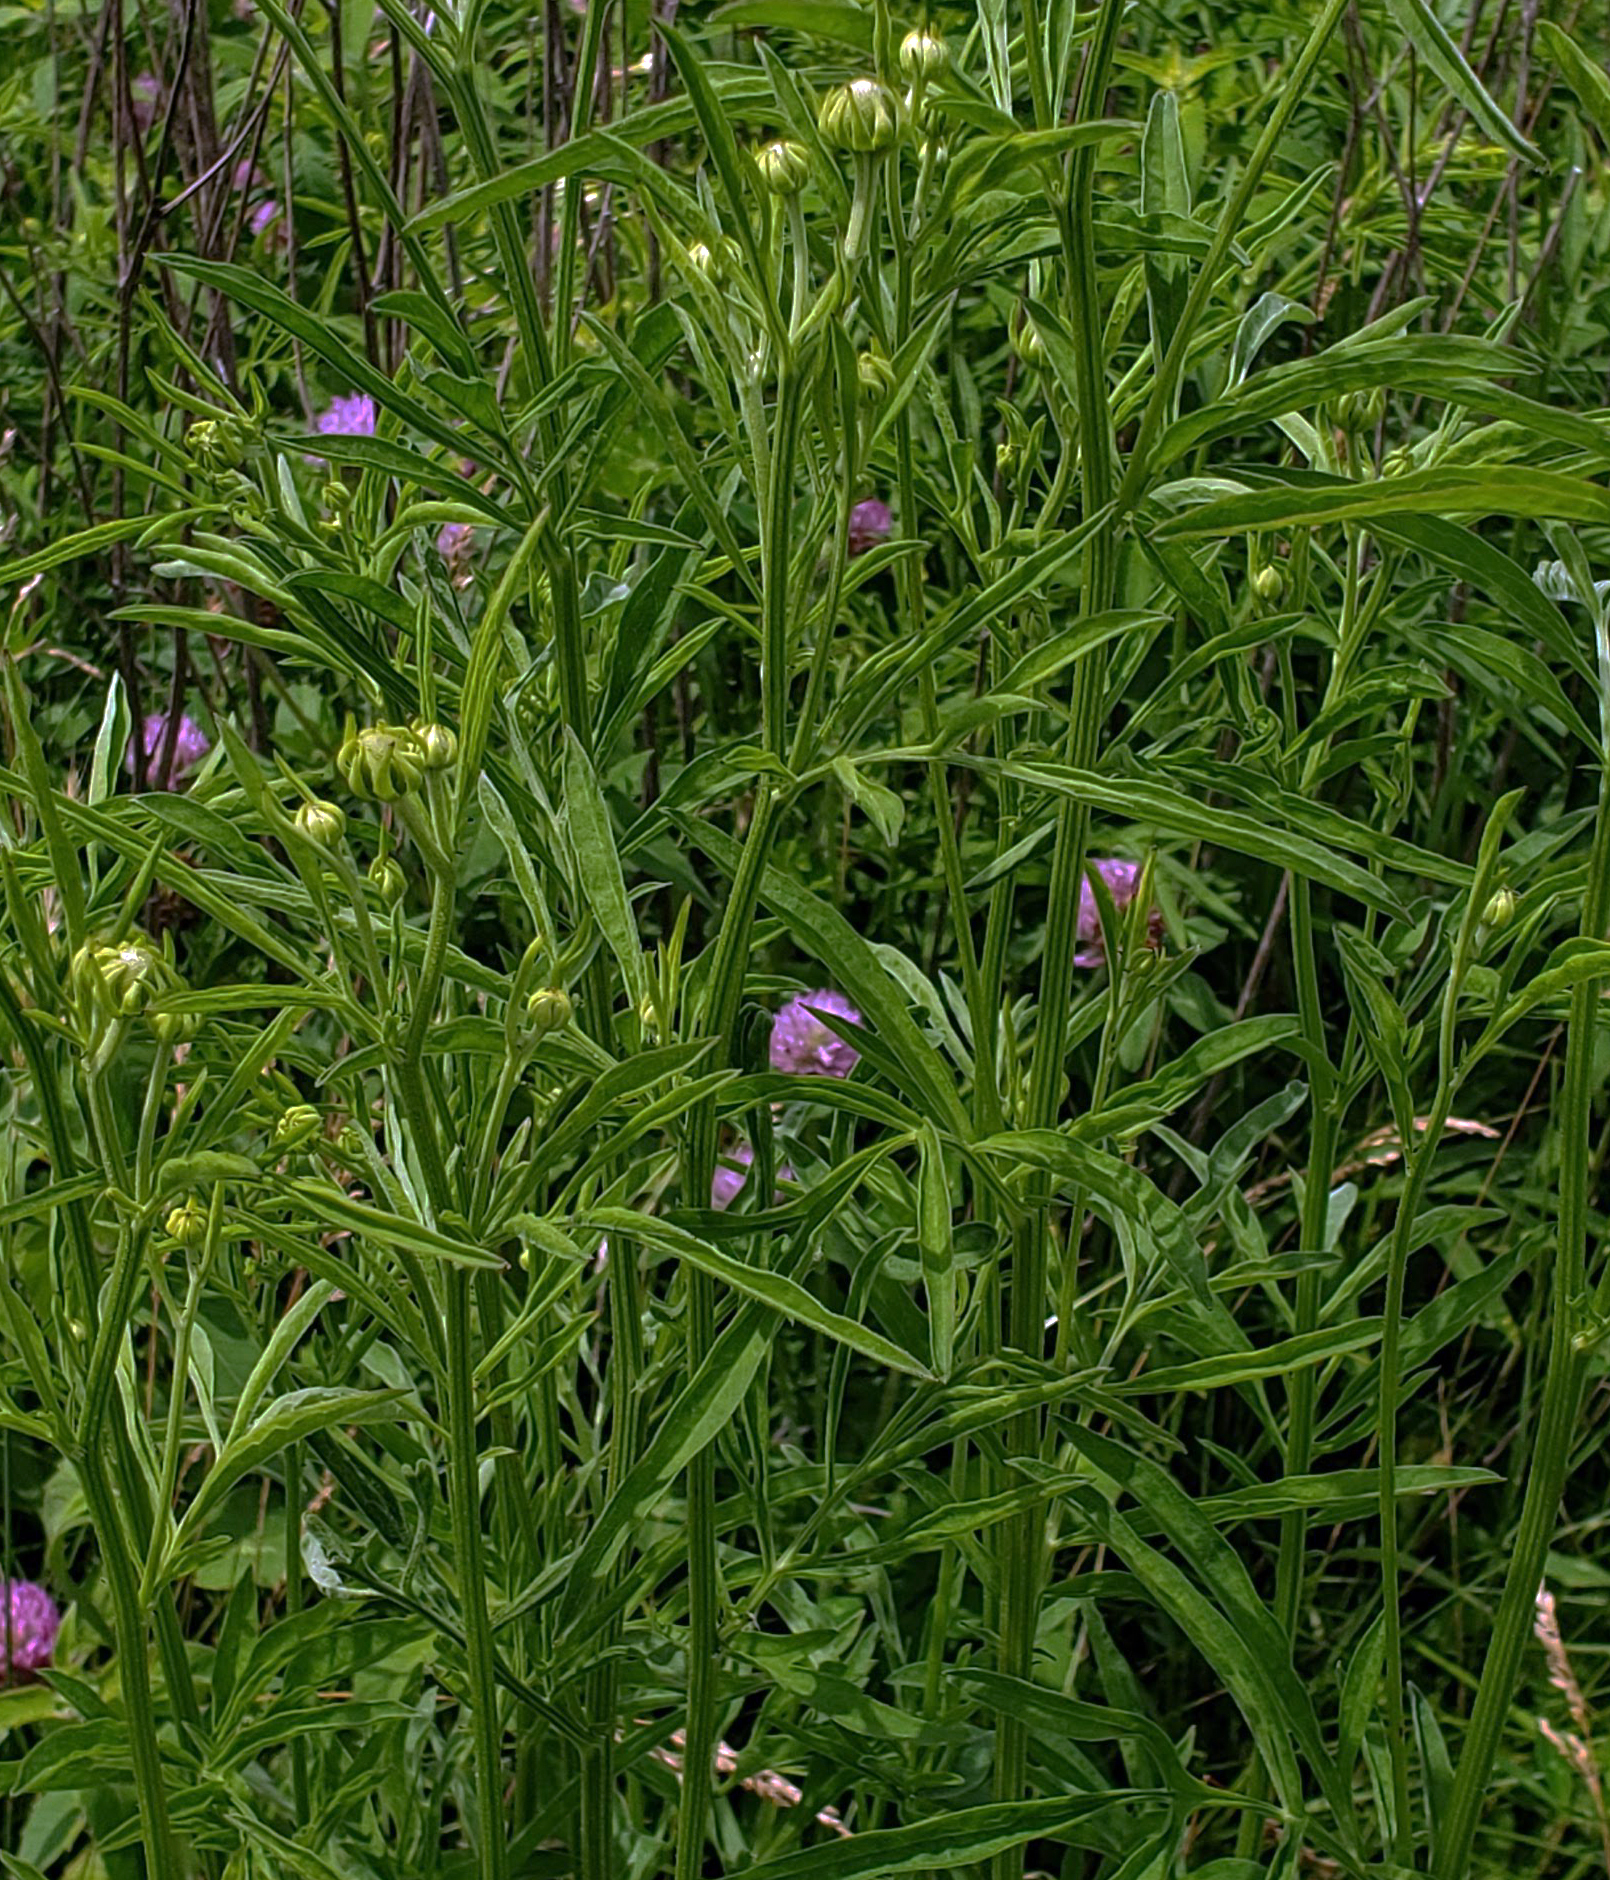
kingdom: Plantae
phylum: Tracheophyta
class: Magnoliopsida
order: Asterales
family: Asteraceae
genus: Ratibida
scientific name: Ratibida pinnata
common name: Drooping prairie-coneflower
